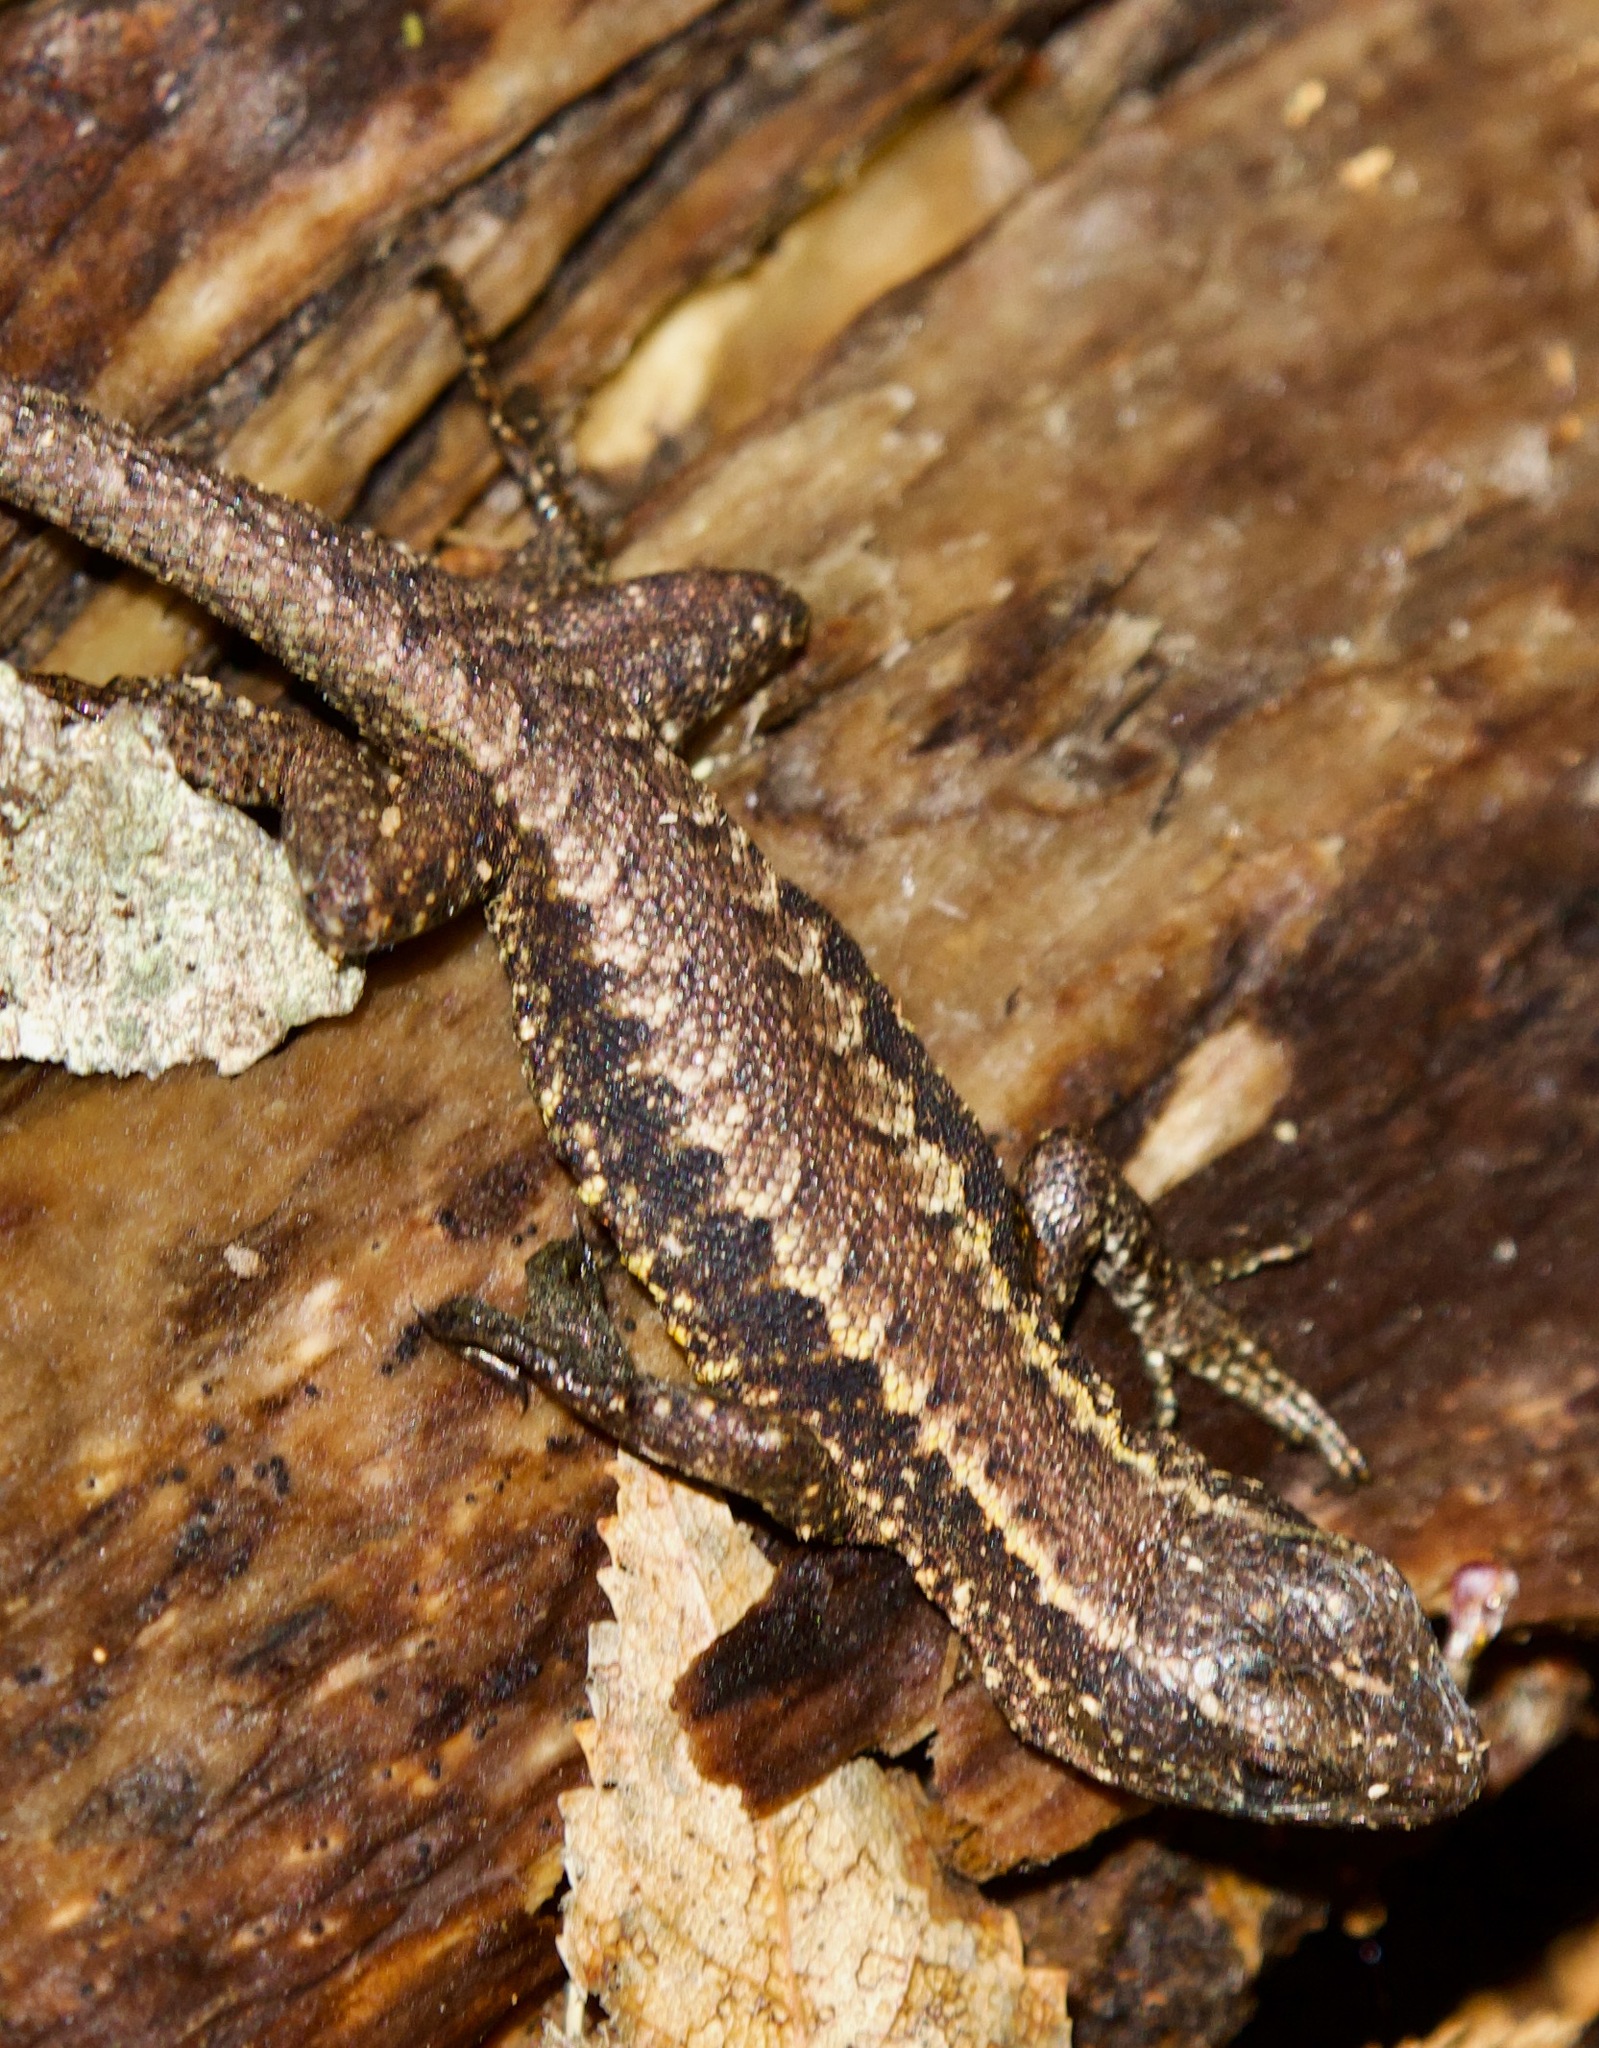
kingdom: Animalia
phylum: Chordata
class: Squamata
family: Liolaemidae
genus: Liolaemus
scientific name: Liolaemus pictus
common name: Painted tree iguana
